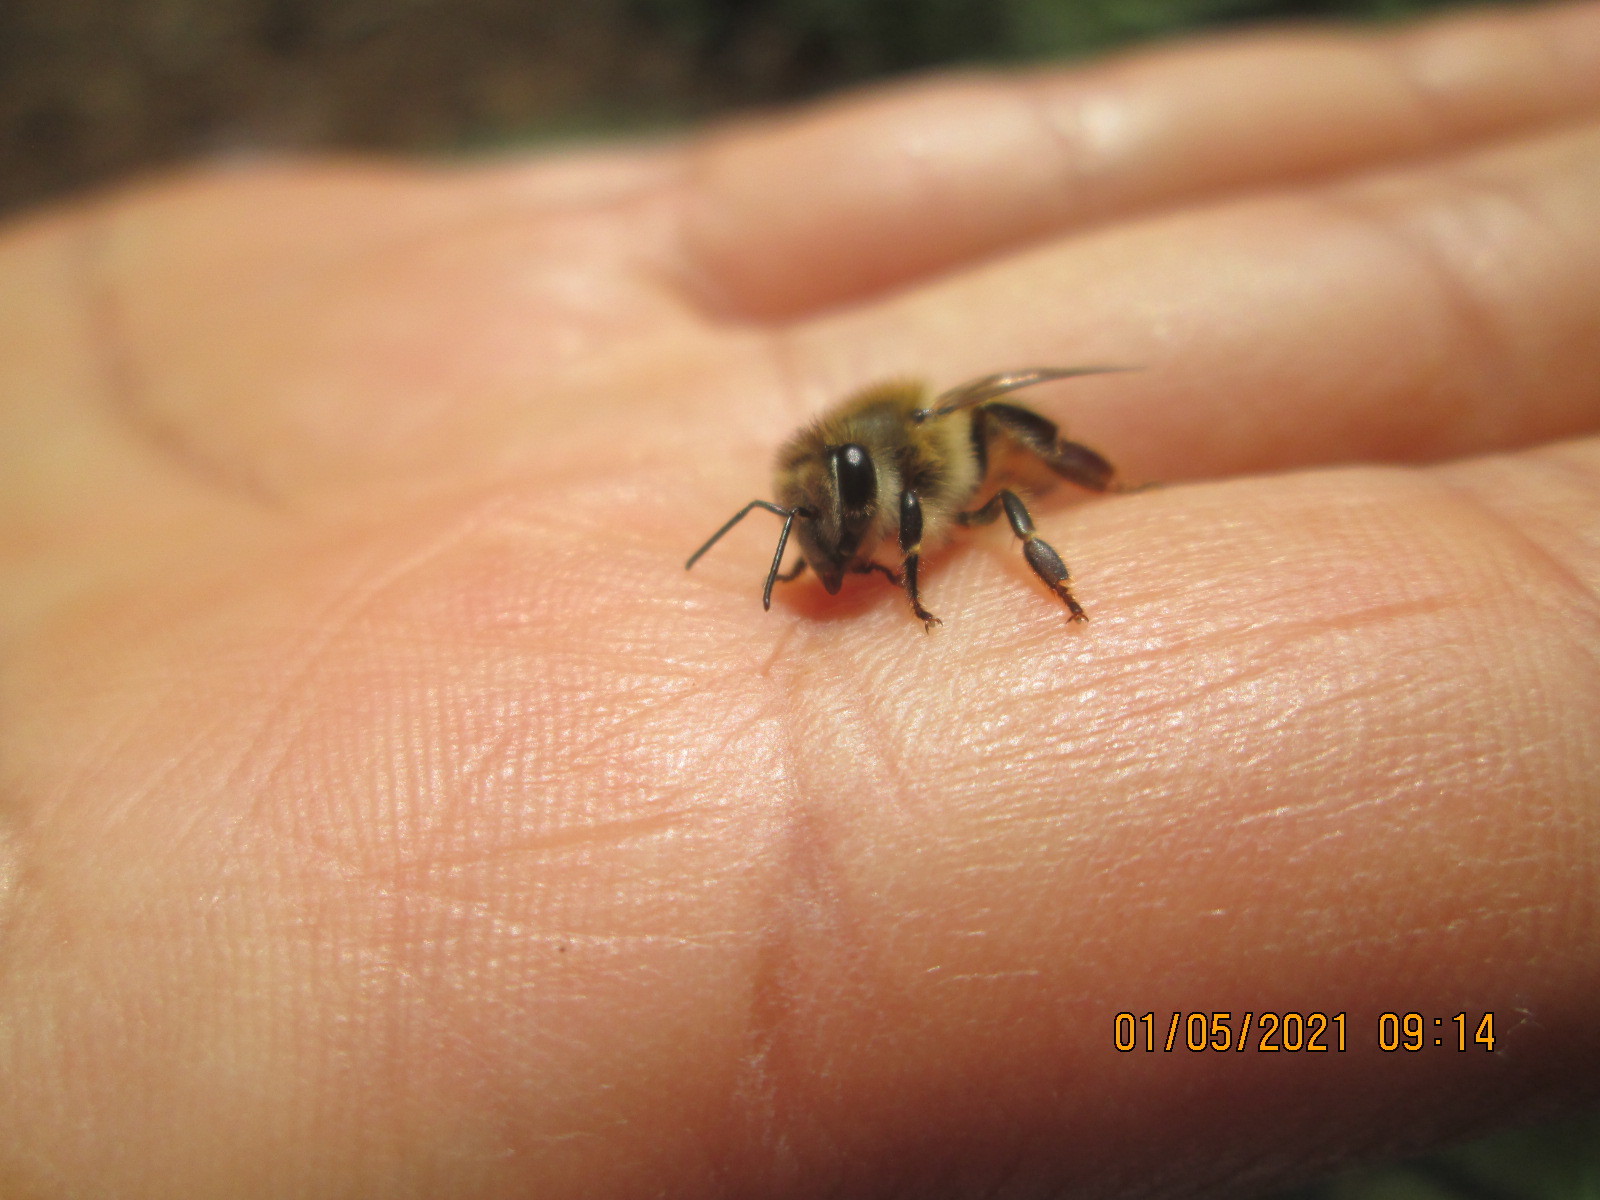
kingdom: Animalia
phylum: Arthropoda
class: Insecta
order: Hymenoptera
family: Apidae
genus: Apis
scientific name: Apis mellifera
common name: Honey bee
